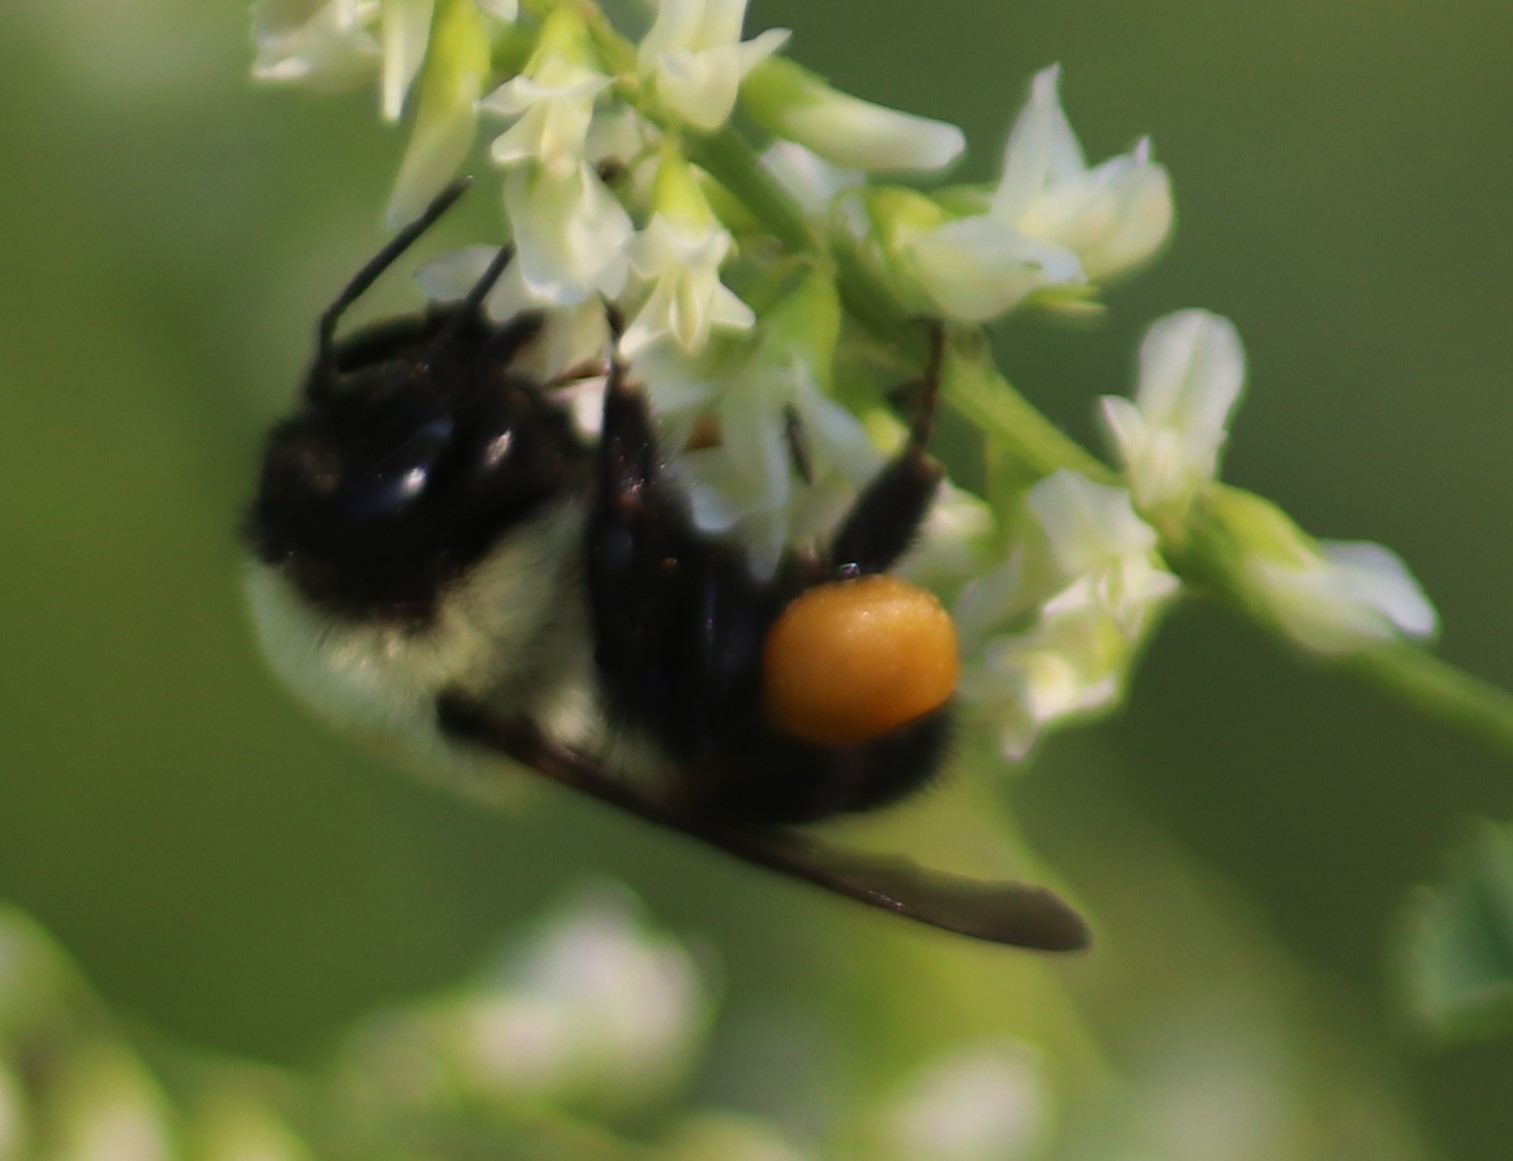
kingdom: Animalia
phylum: Arthropoda
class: Insecta
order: Hymenoptera
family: Apidae
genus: Bombus
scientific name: Bombus griseocollis
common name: Brown-belted bumble bee
